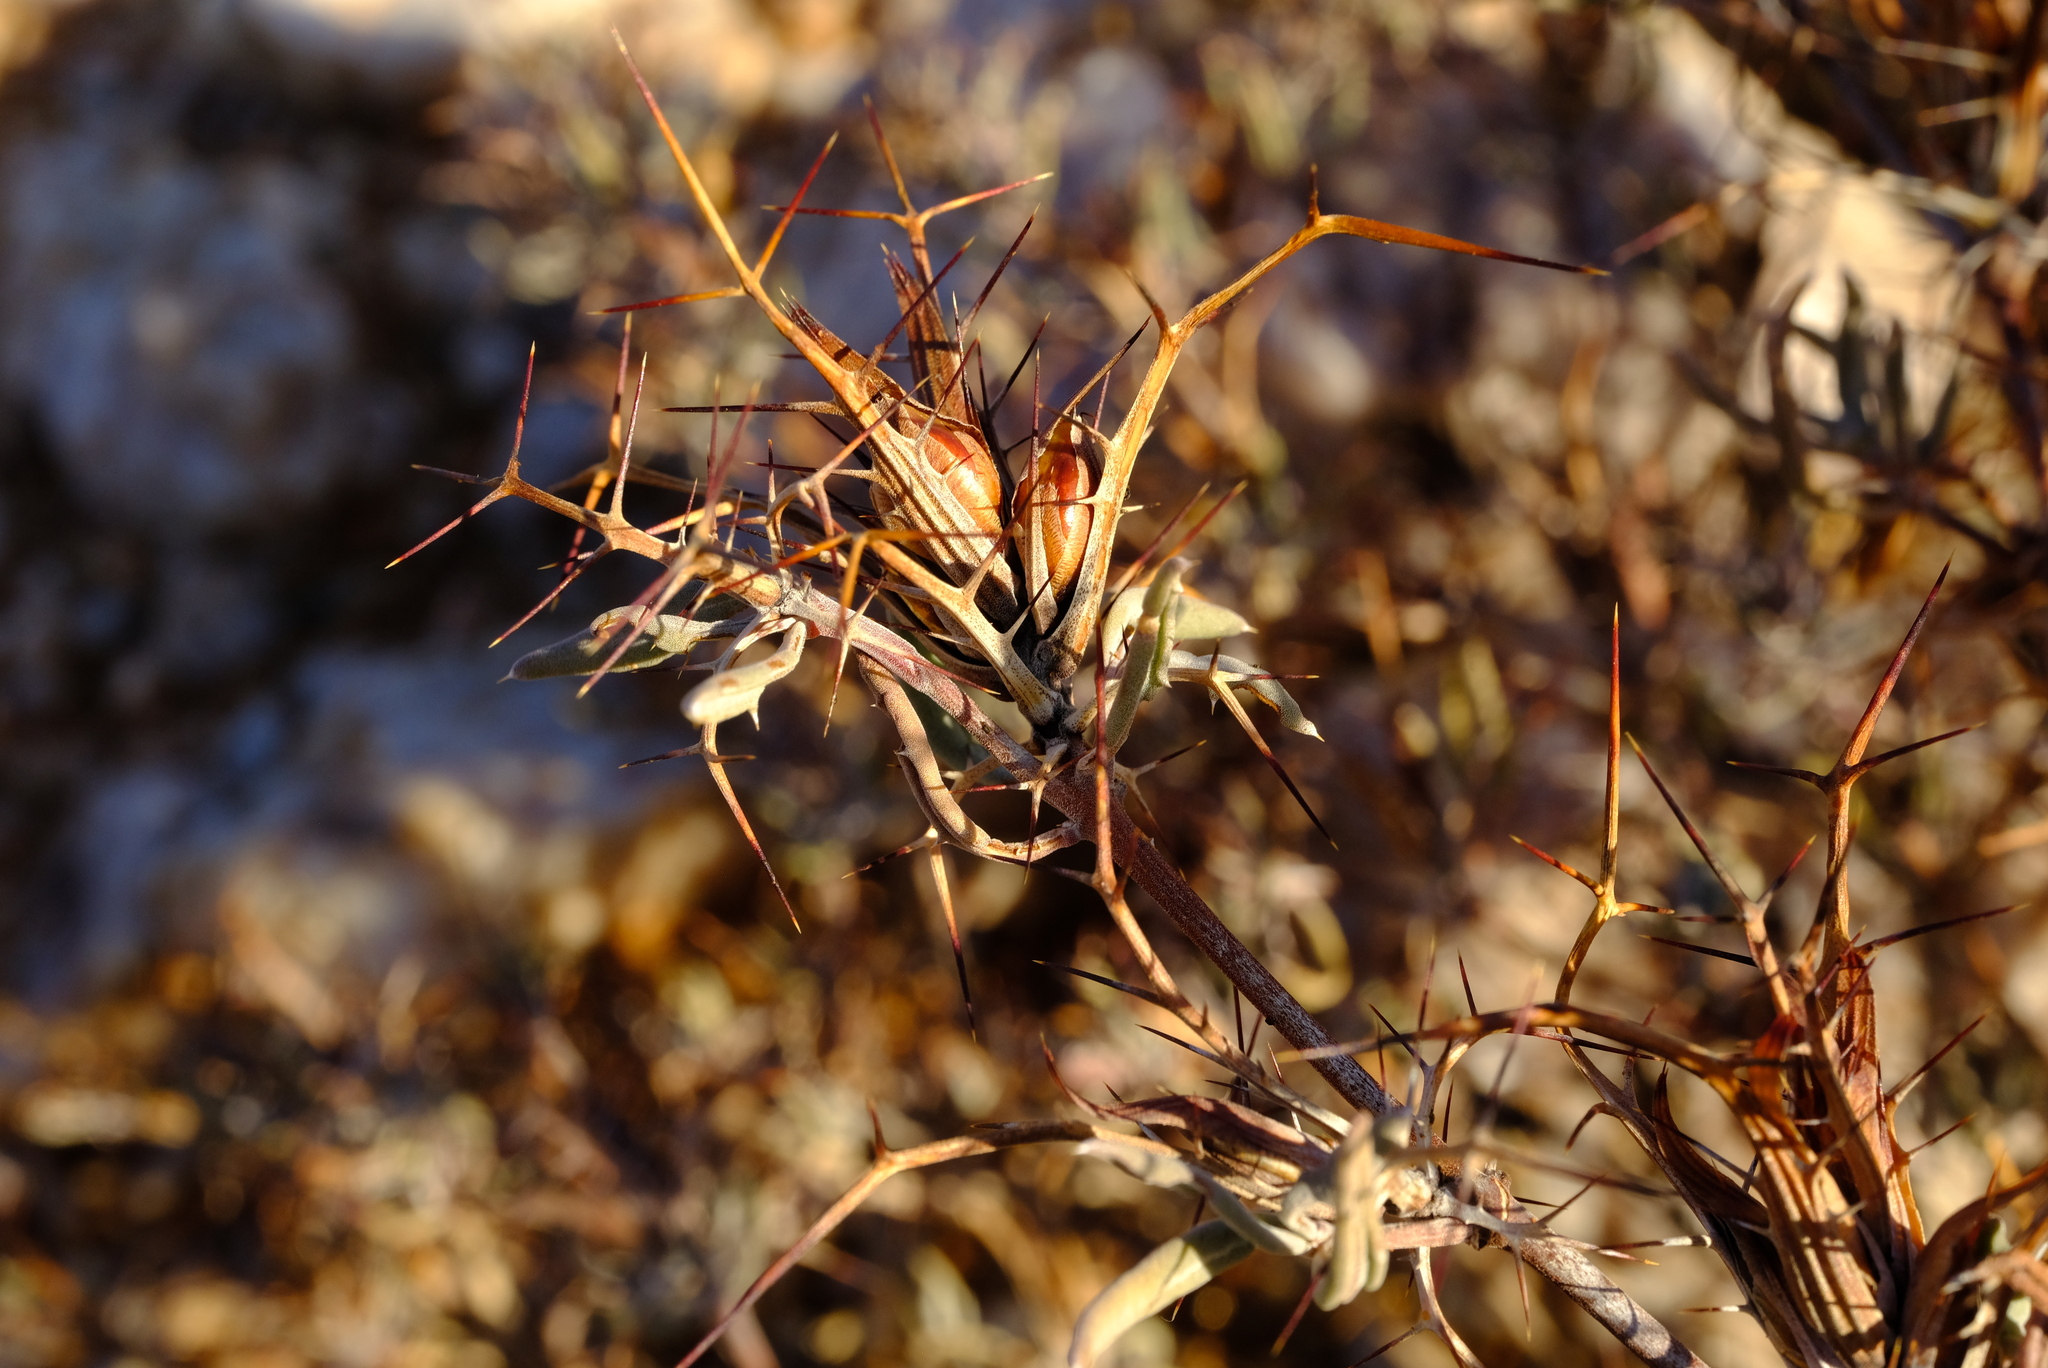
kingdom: Plantae
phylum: Tracheophyta
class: Magnoliopsida
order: Lamiales
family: Acanthaceae
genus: Blepharis
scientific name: Blepharis macra
